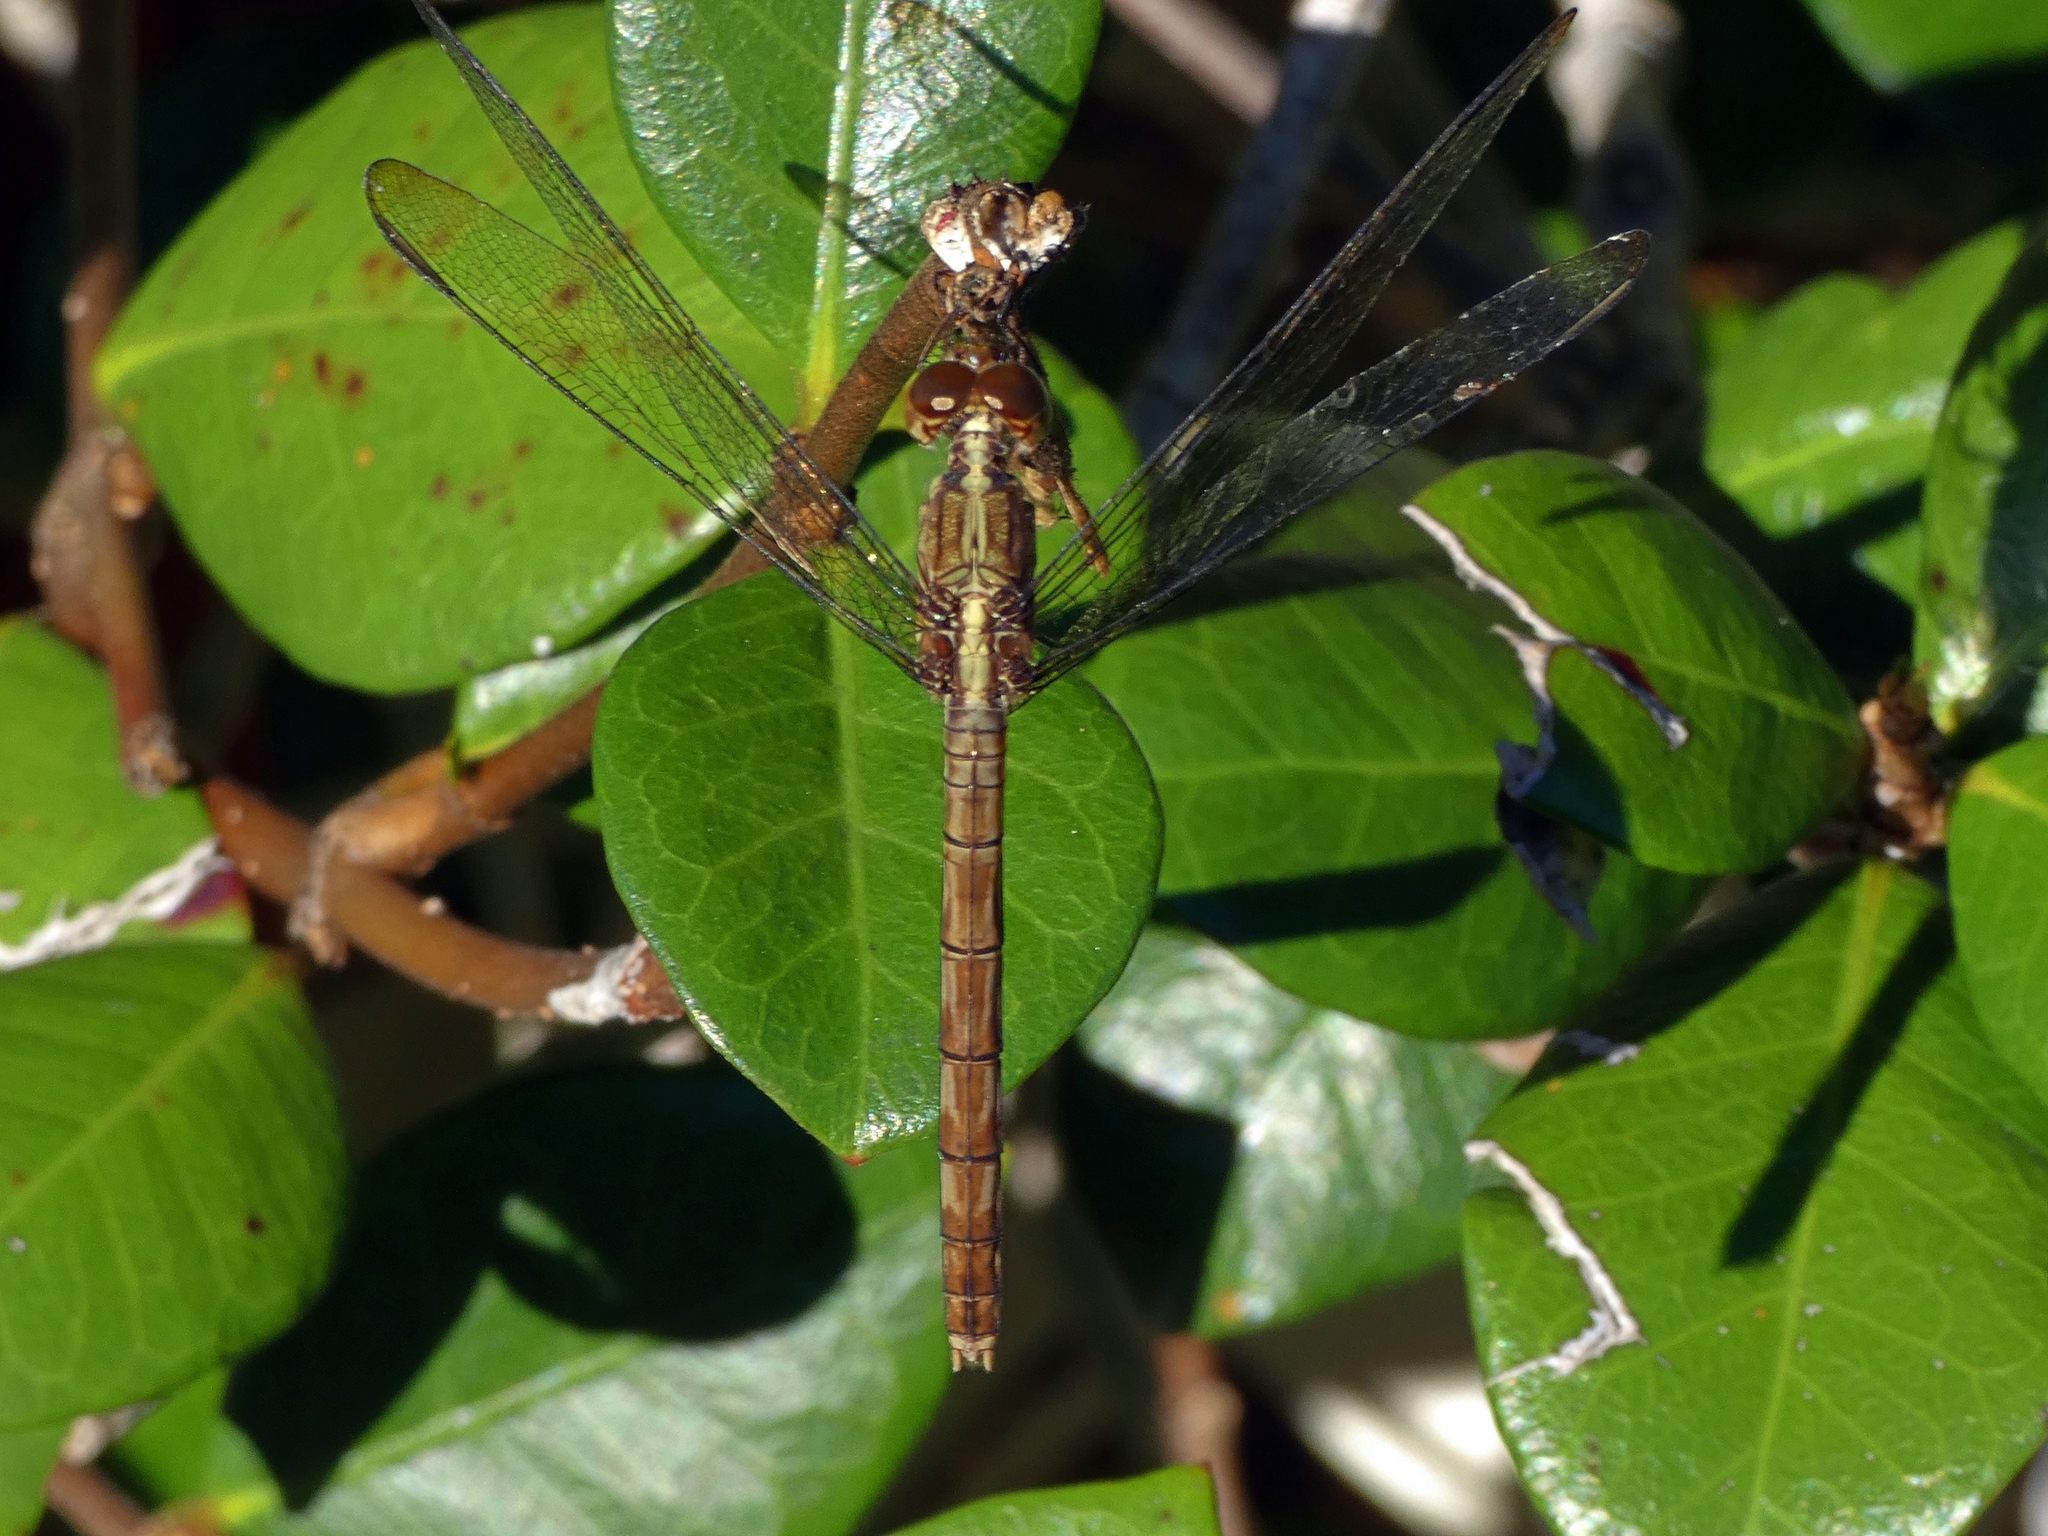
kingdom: Animalia
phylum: Arthropoda
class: Insecta
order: Odonata
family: Libellulidae
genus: Erythrodiplax
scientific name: Erythrodiplax umbrata
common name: Band-winged dragonlet
